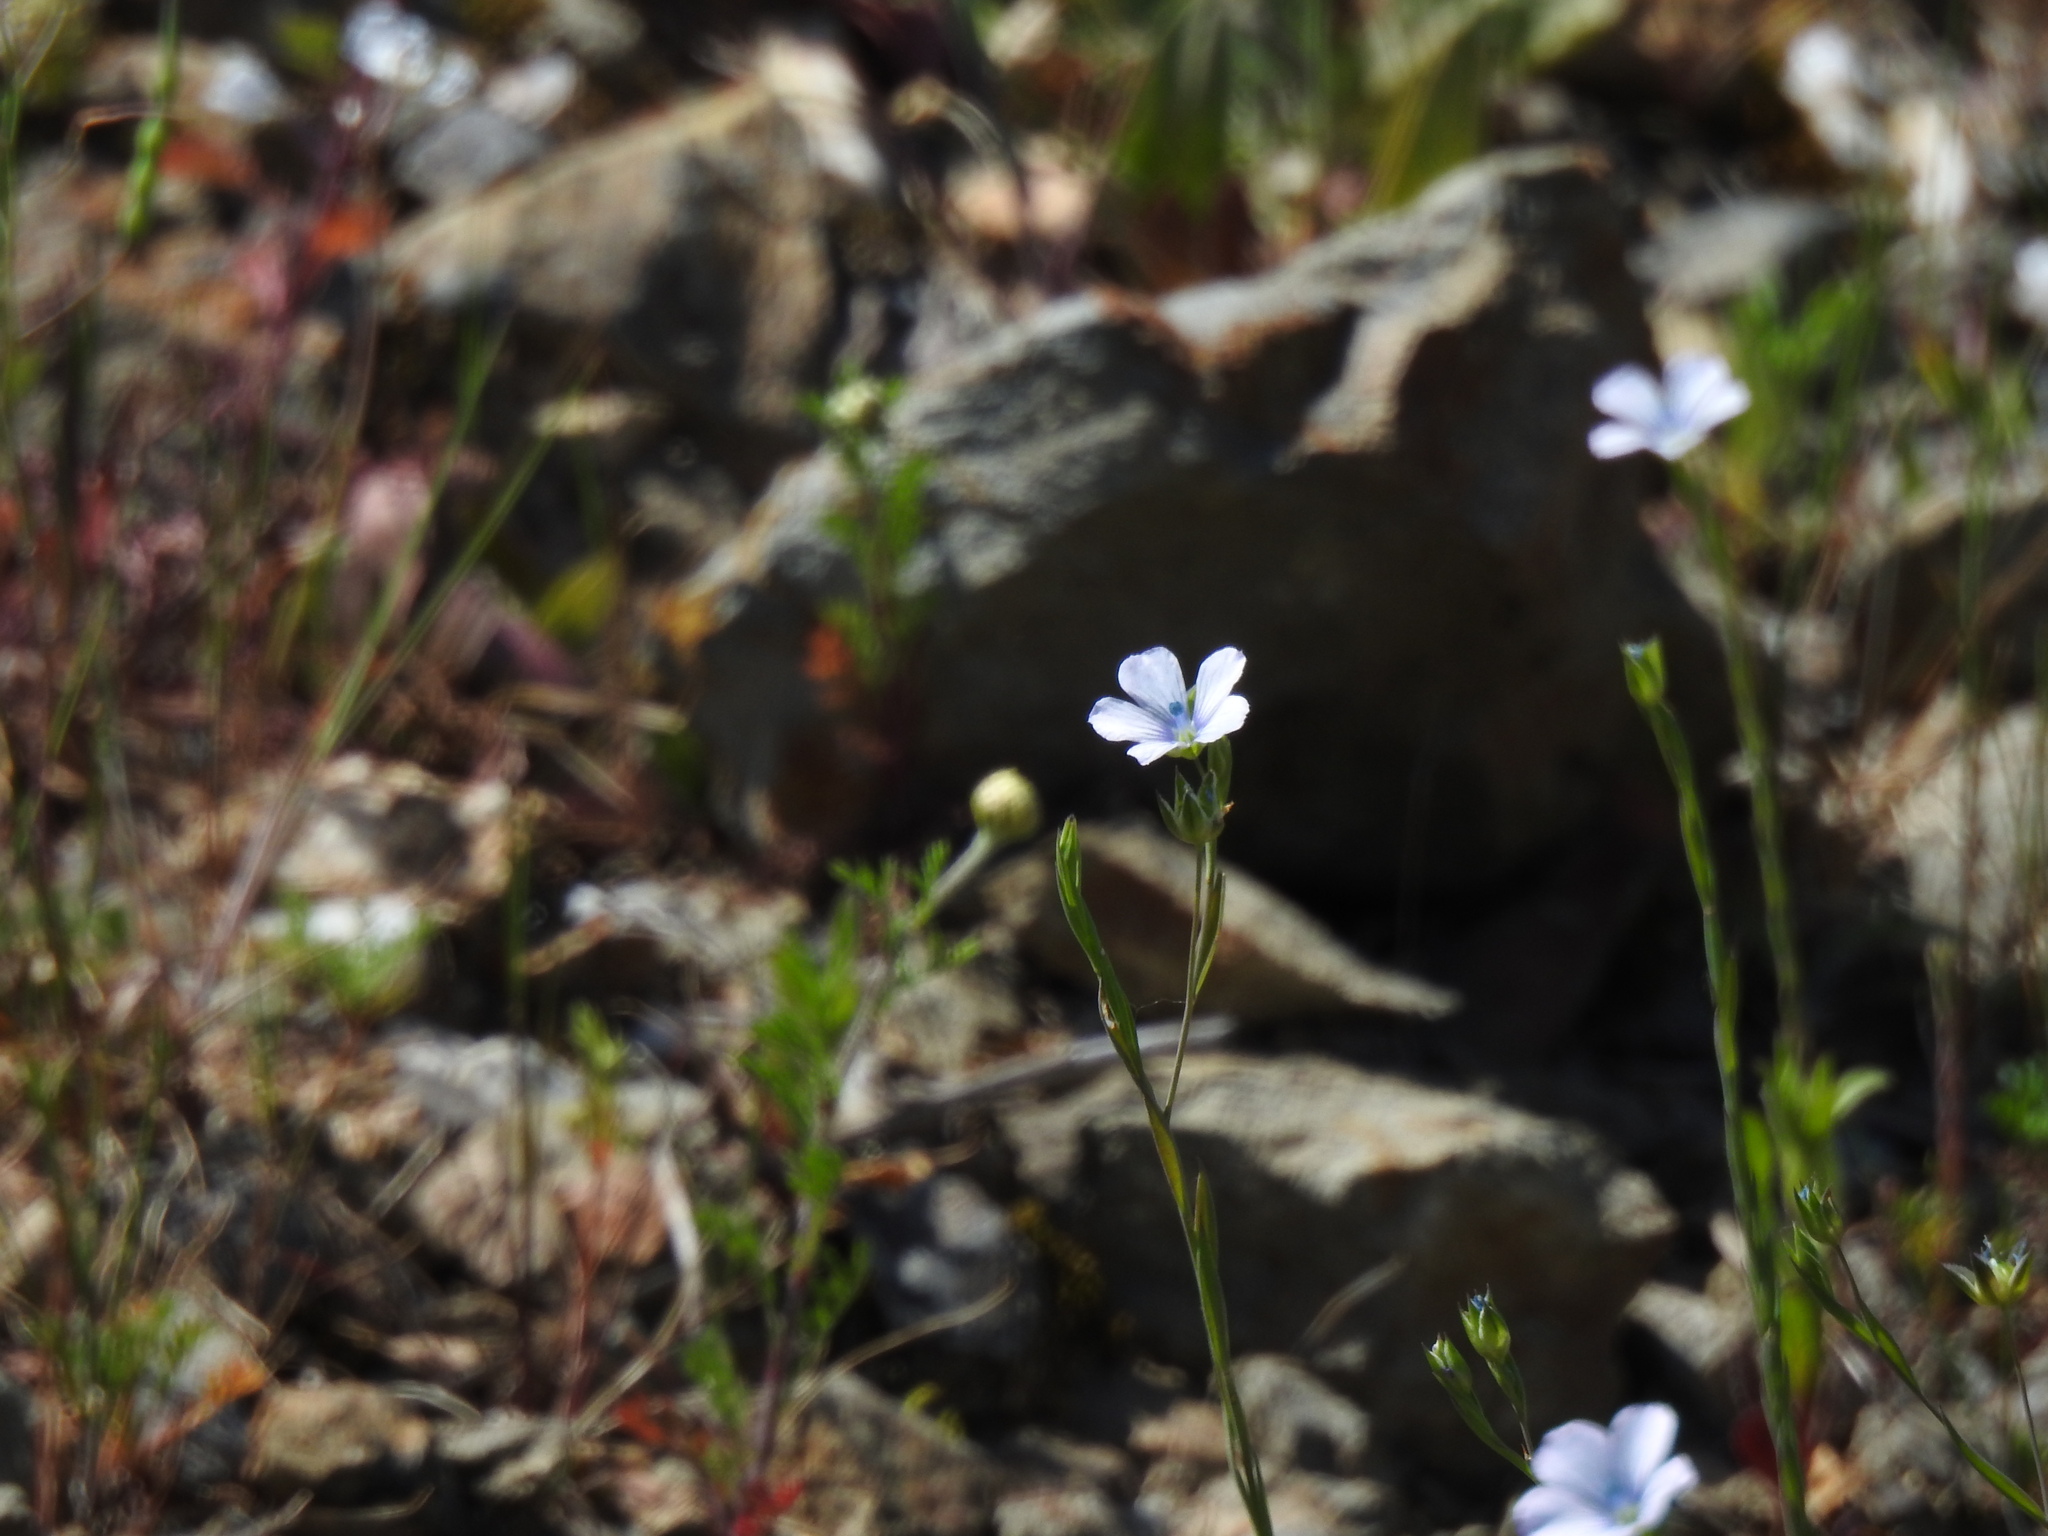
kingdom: Plantae
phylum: Tracheophyta
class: Magnoliopsida
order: Malpighiales
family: Linaceae
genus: Linum
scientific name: Linum bienne
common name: Pale flax
